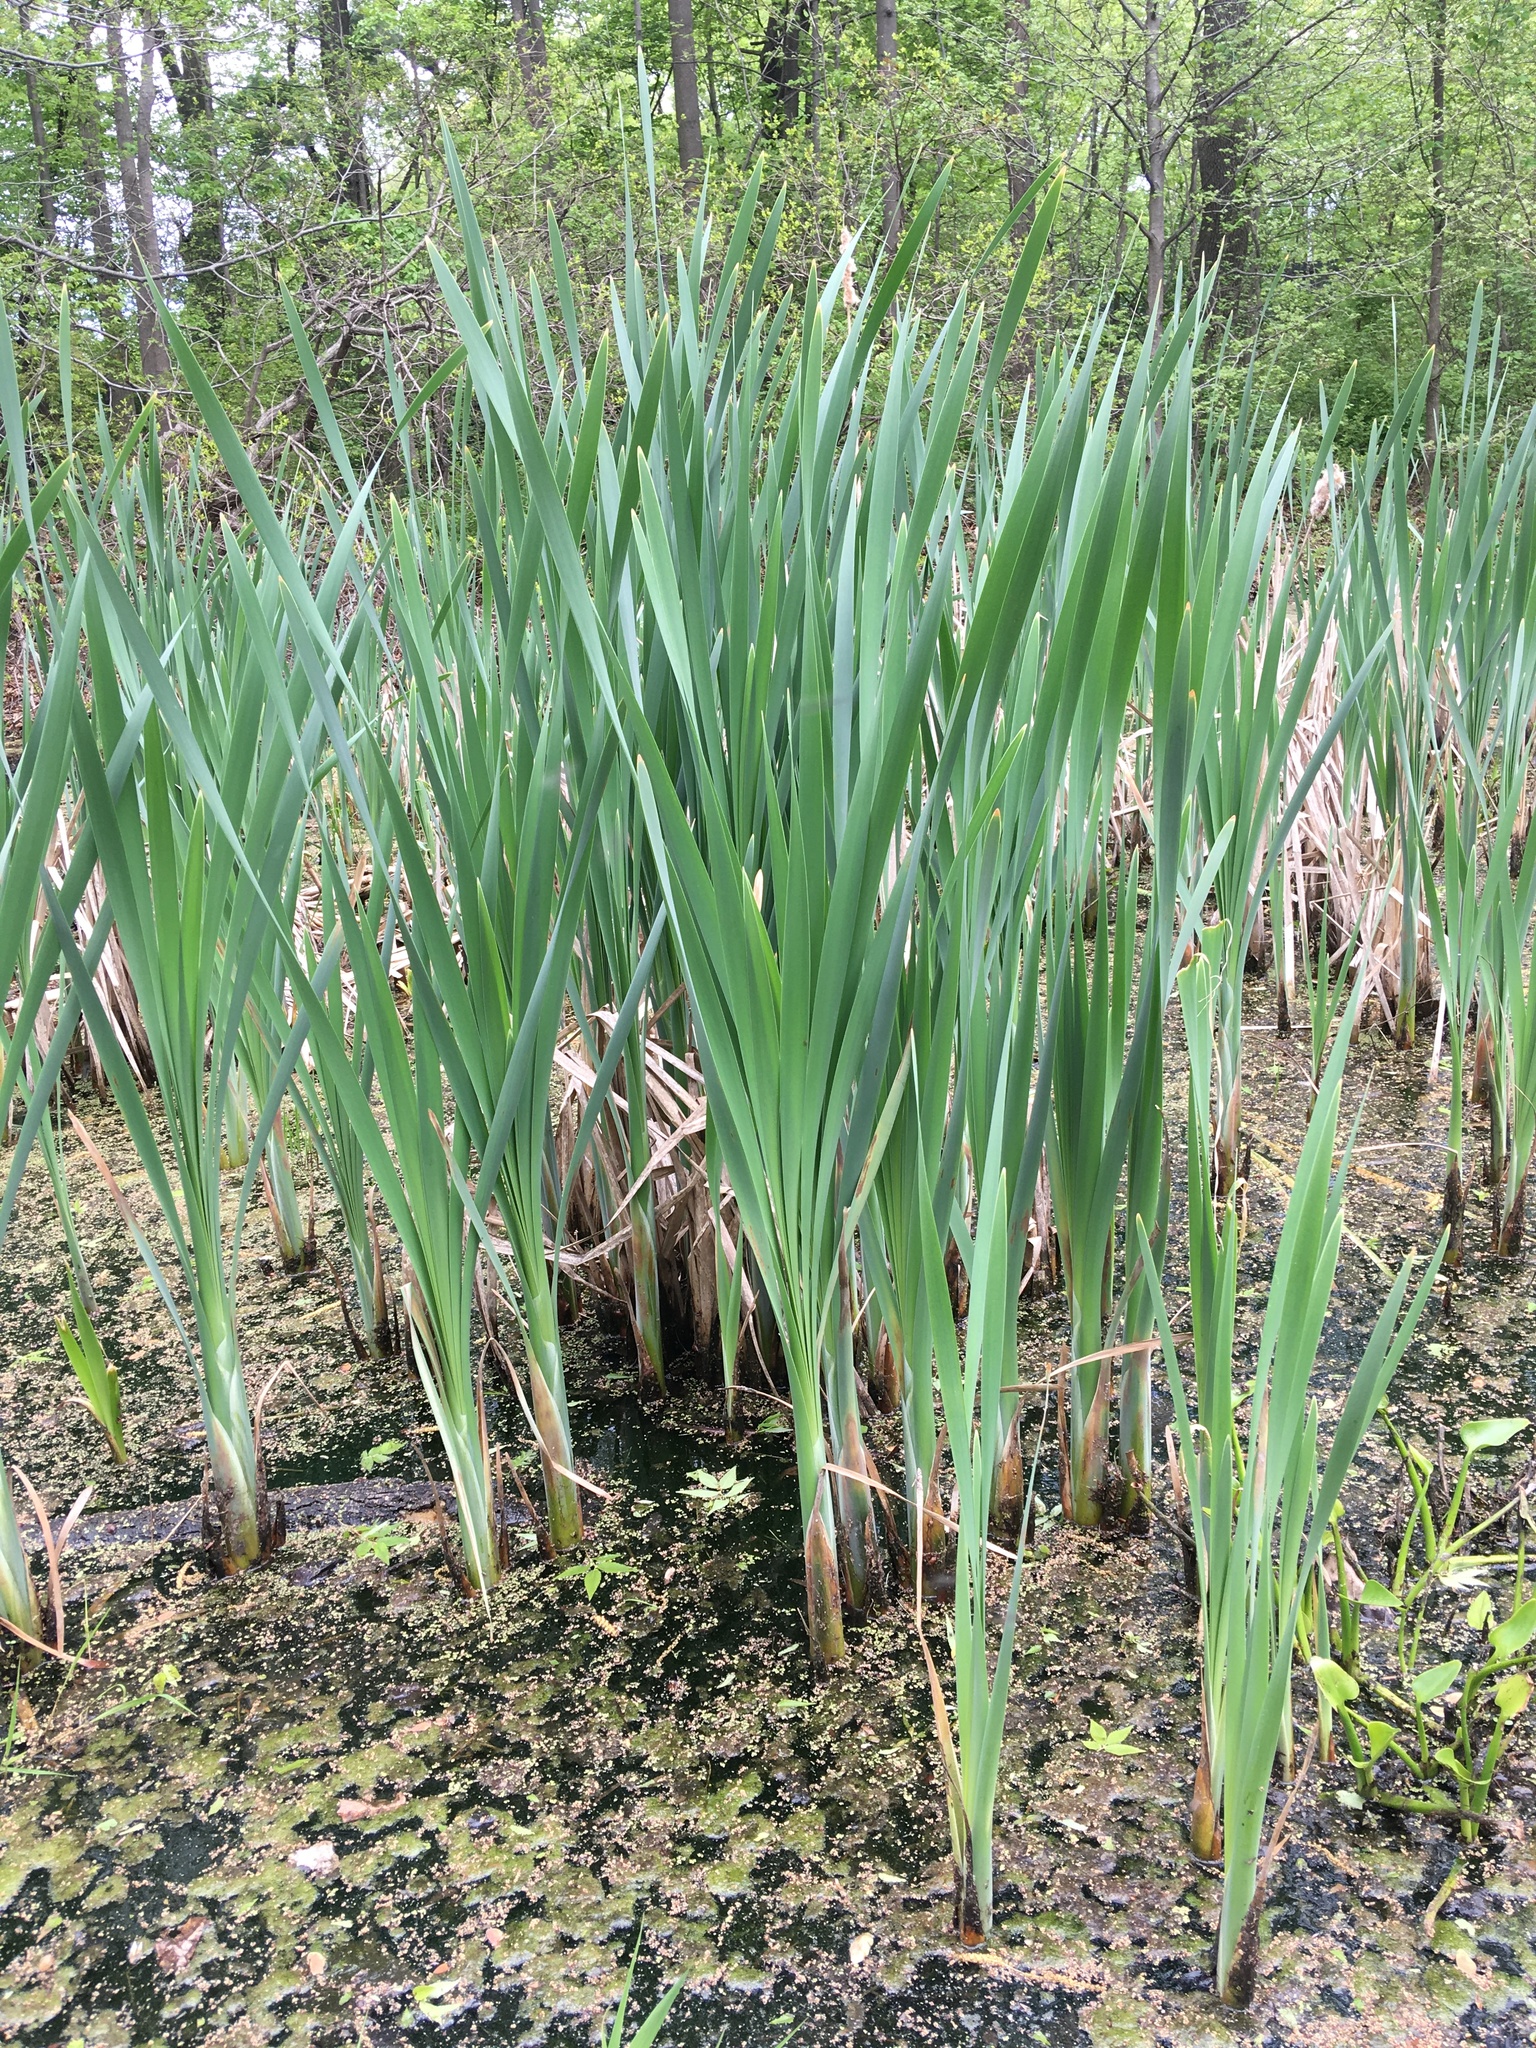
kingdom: Plantae
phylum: Tracheophyta
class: Liliopsida
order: Poales
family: Typhaceae
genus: Typha
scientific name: Typha latifolia
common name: Broadleaf cattail
